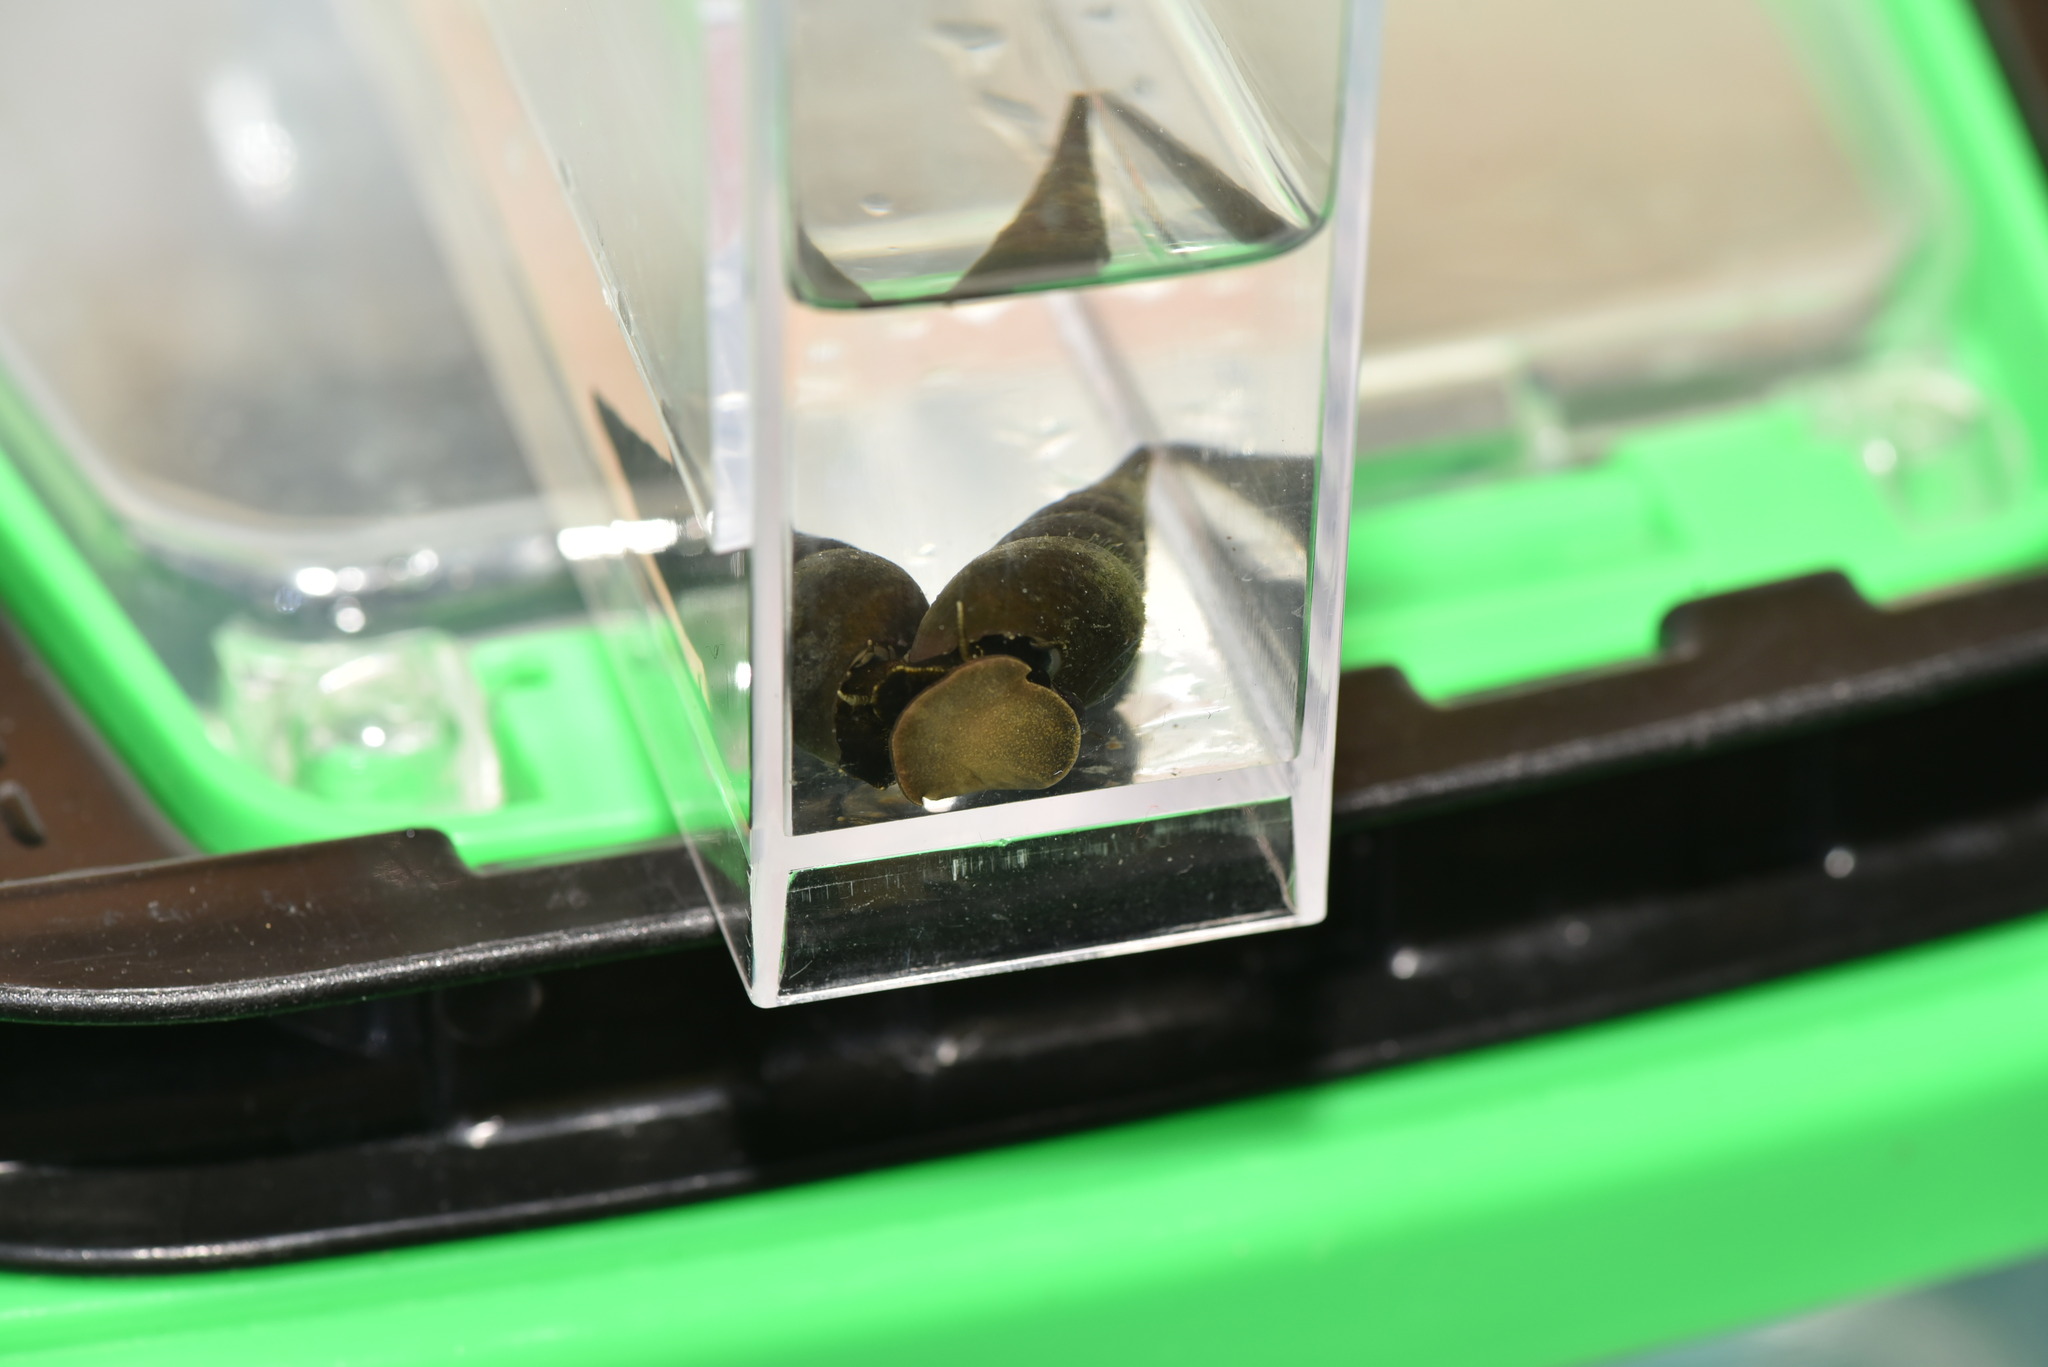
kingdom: Animalia
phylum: Mollusca
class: Gastropoda
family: Thiaridae
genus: Stenomelania
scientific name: Stenomelania plicaria
